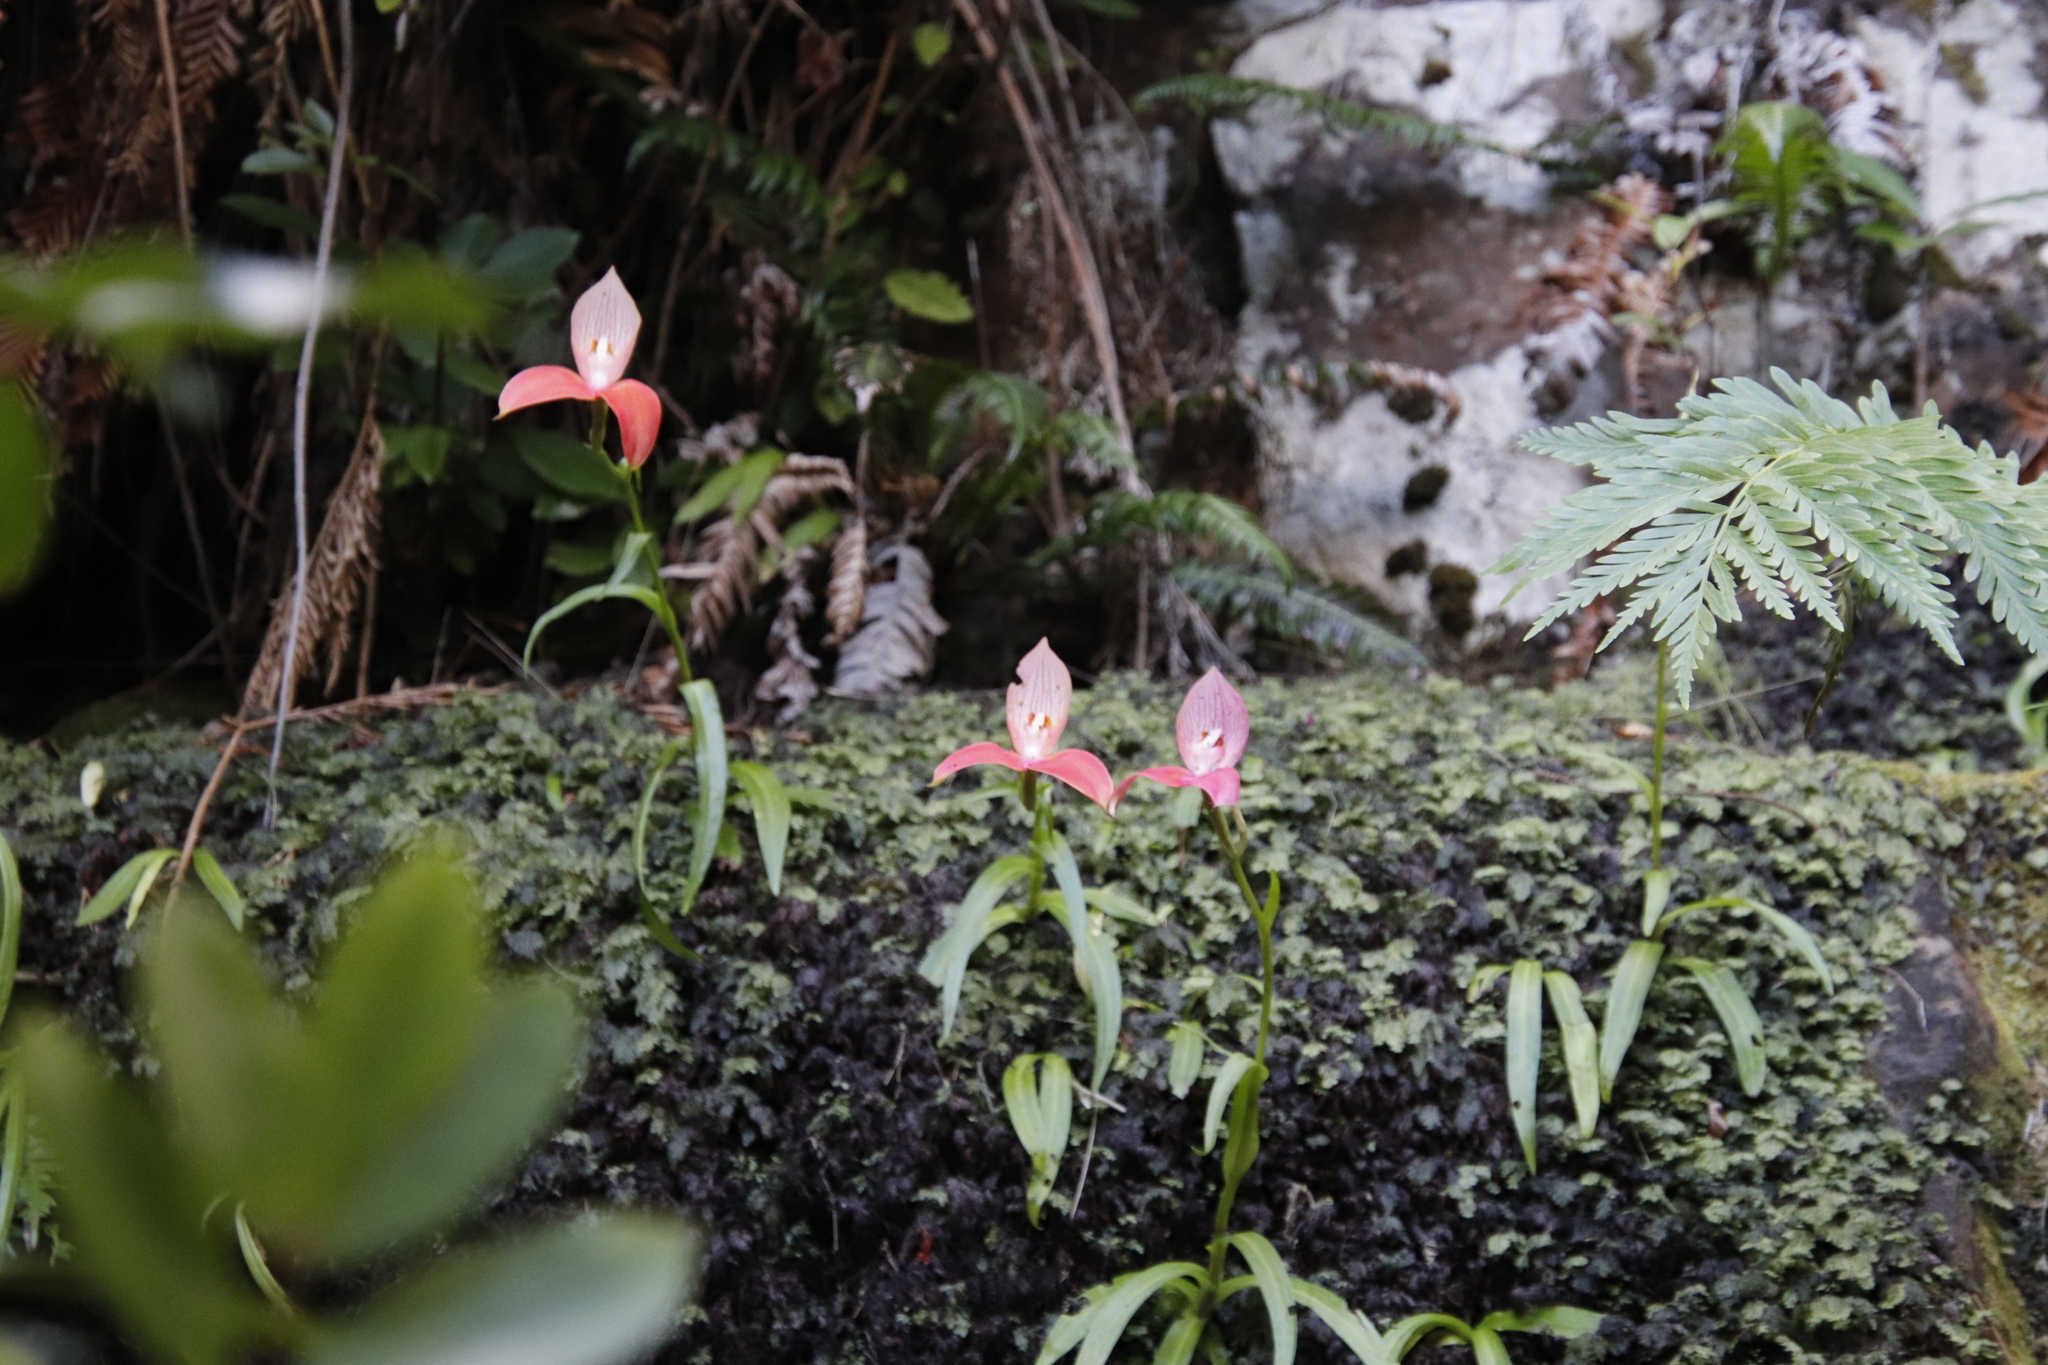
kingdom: Plantae
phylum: Tracheophyta
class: Liliopsida
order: Asparagales
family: Orchidaceae
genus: Disa
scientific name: Disa uniflora
